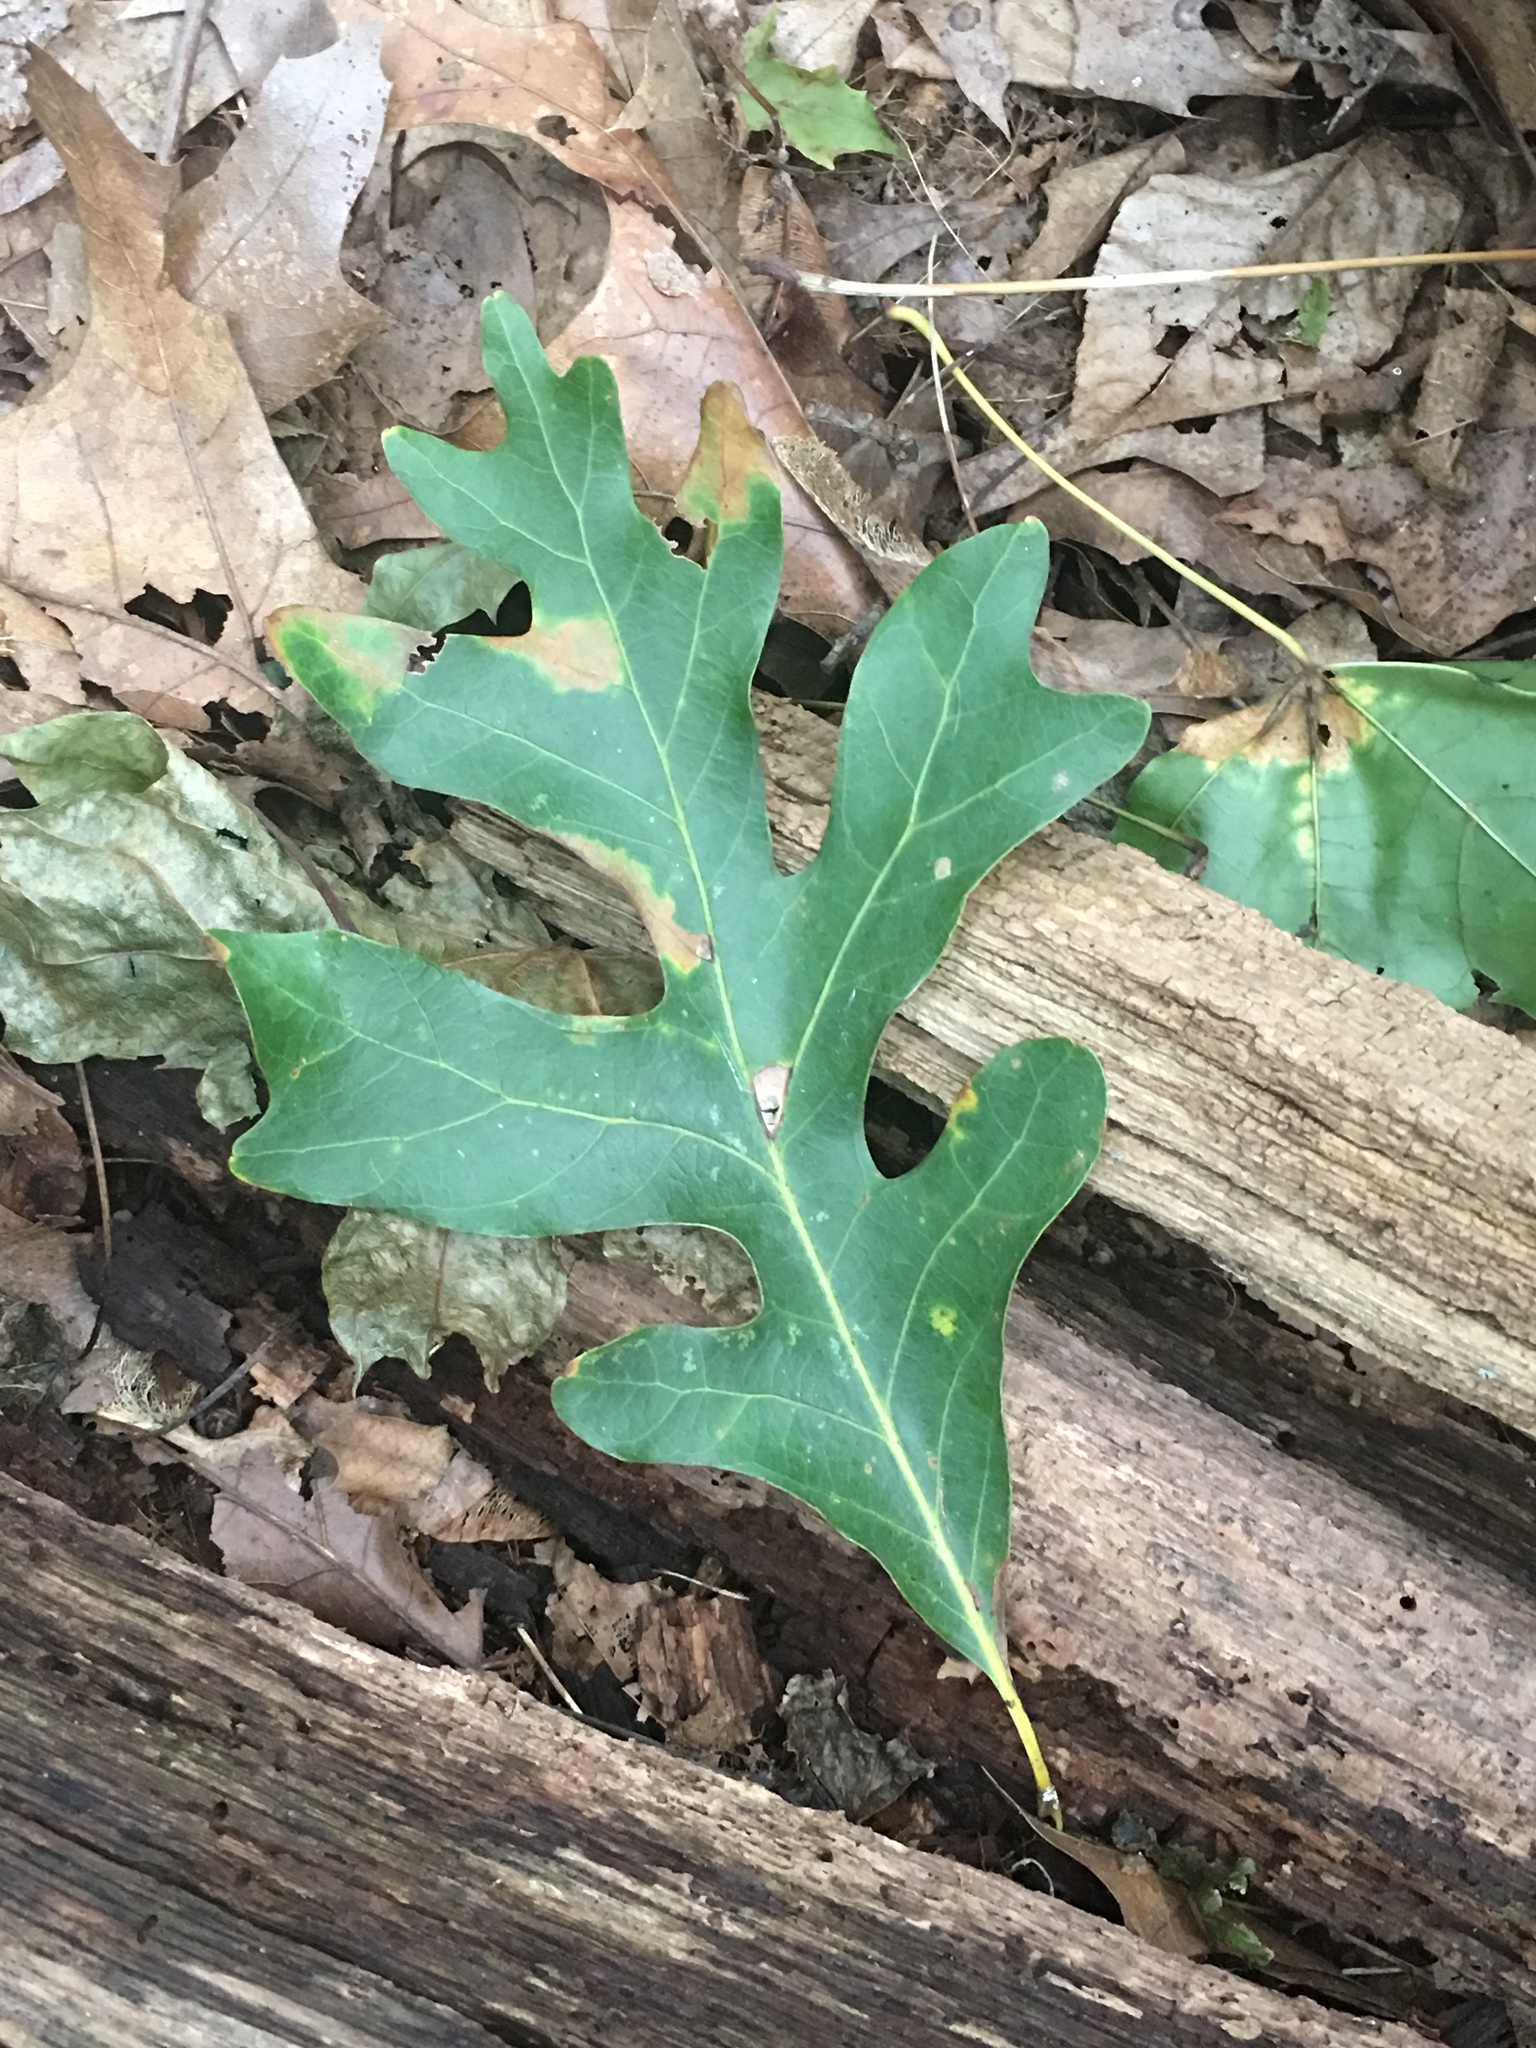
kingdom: Plantae
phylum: Tracheophyta
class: Magnoliopsida
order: Fagales
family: Fagaceae
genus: Quercus
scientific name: Quercus alba
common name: White oak
